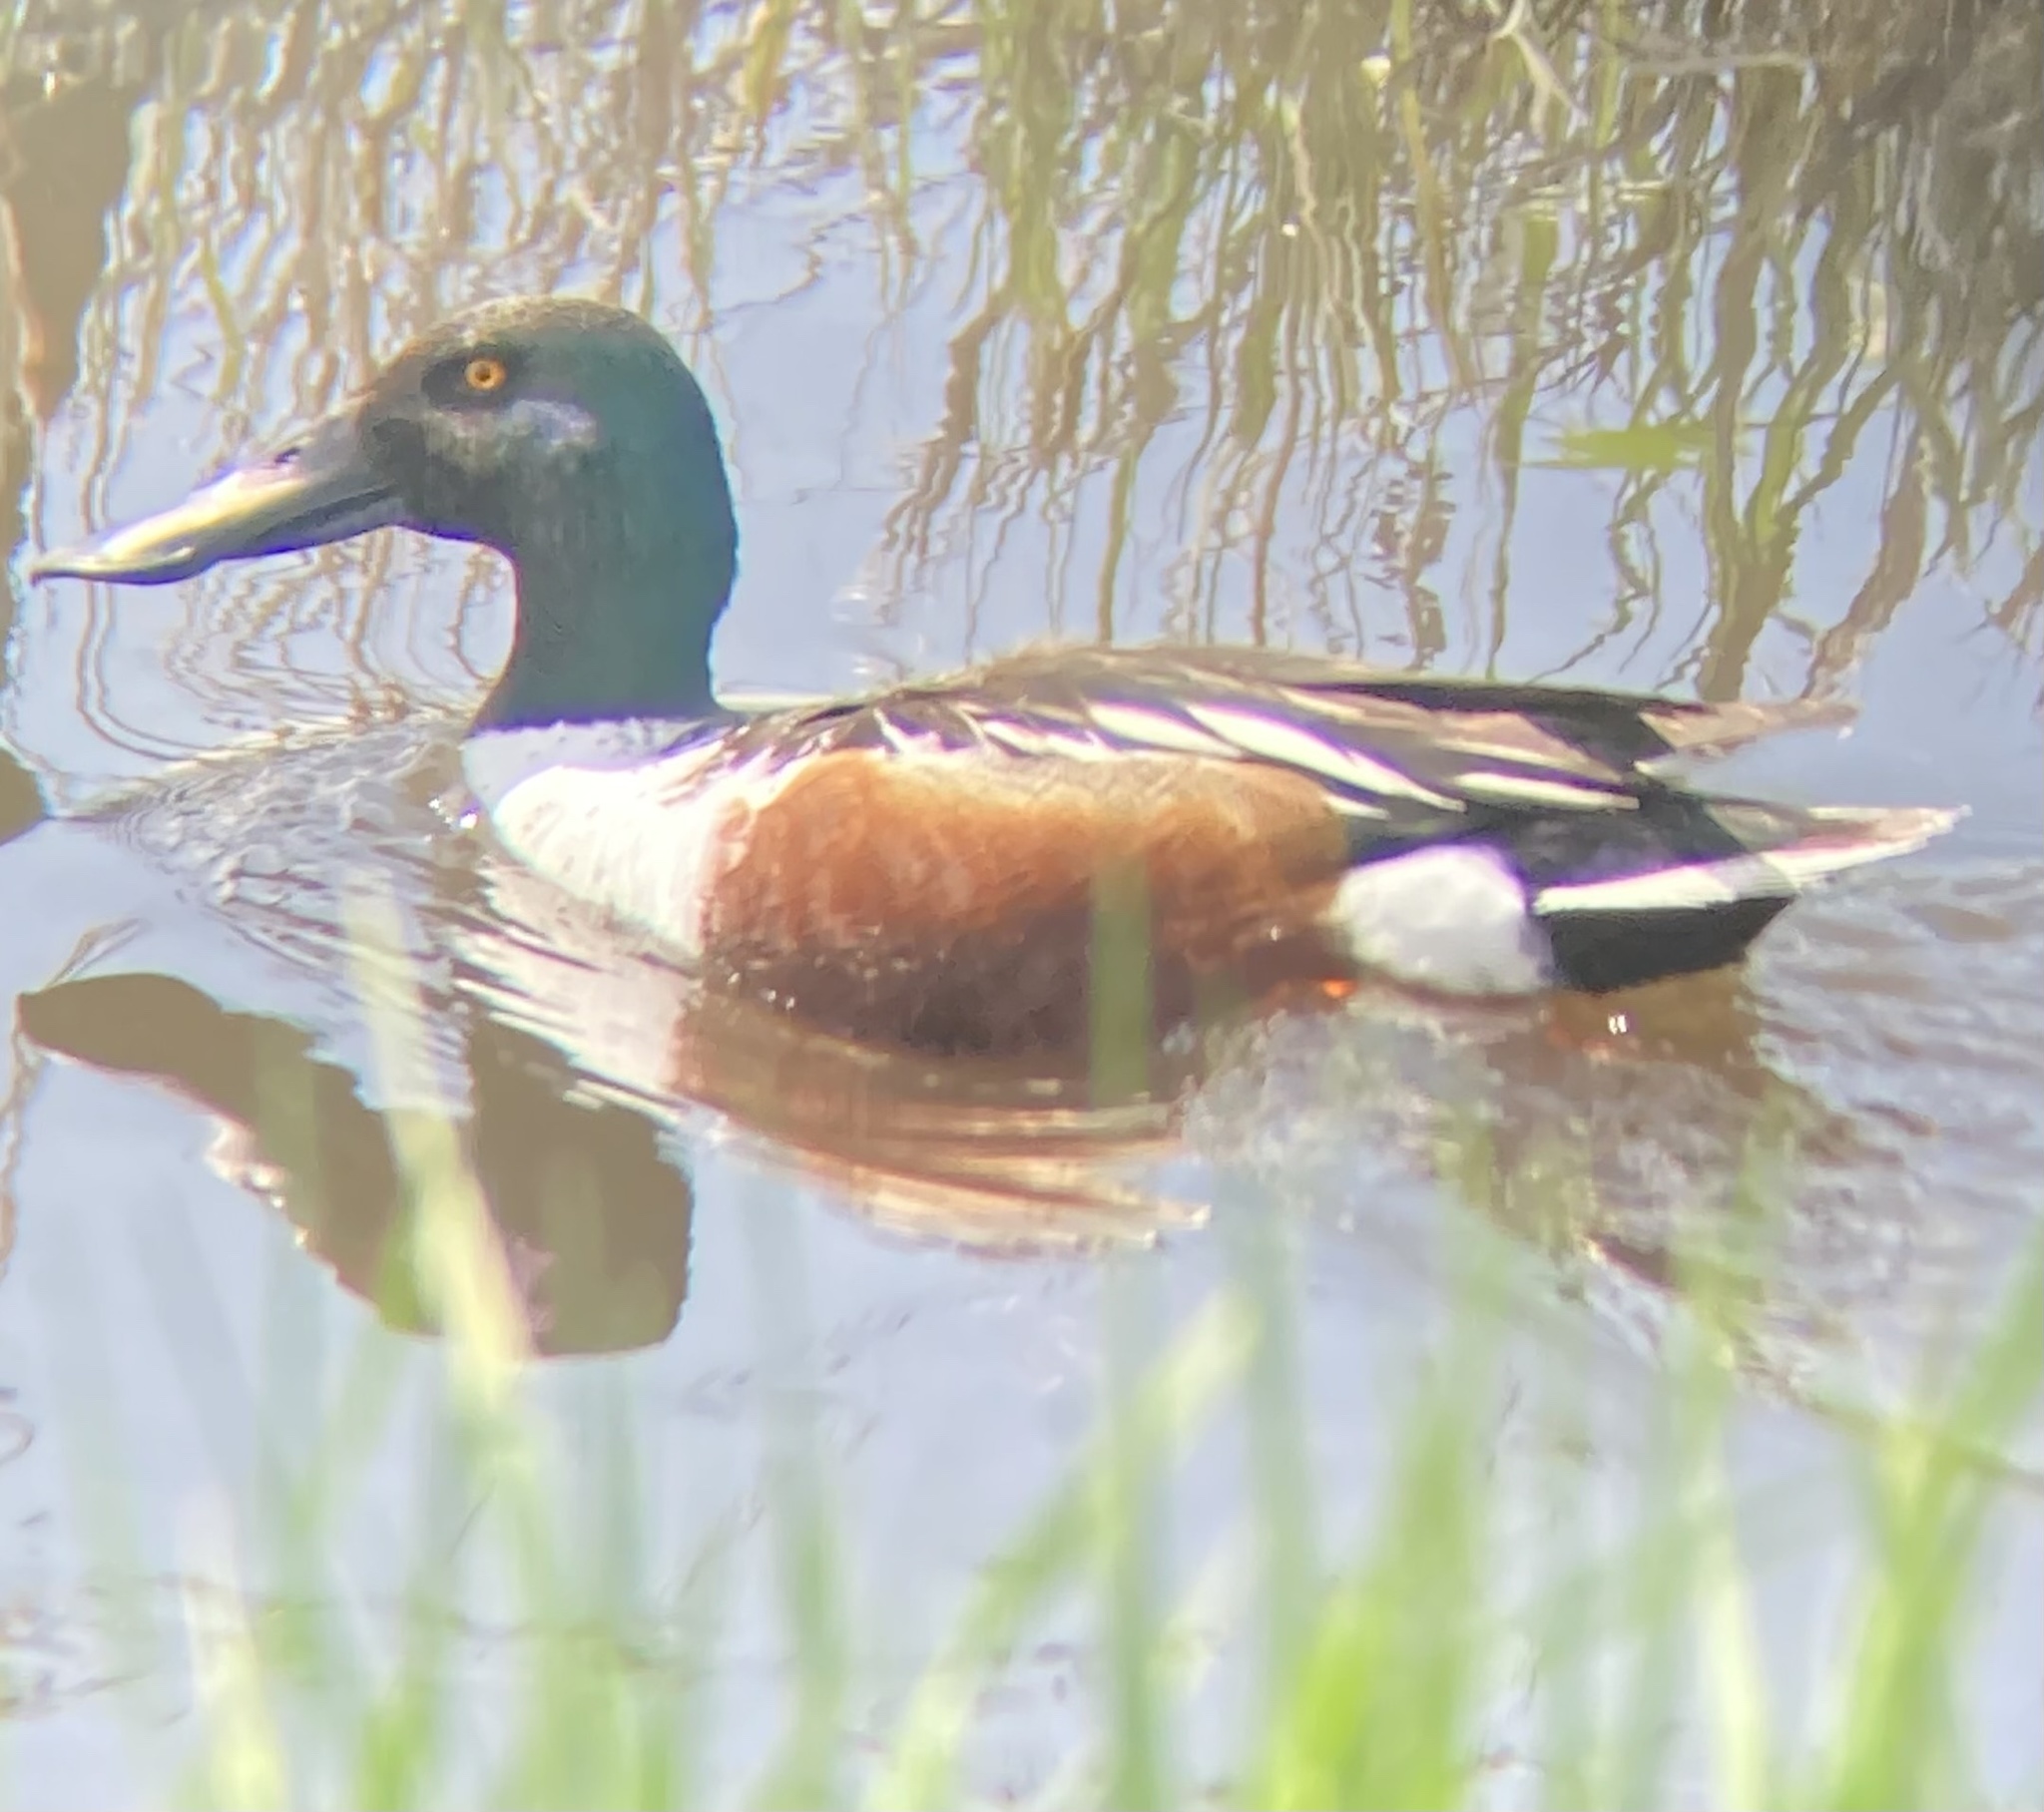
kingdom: Animalia
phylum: Chordata
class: Aves
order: Anseriformes
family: Anatidae
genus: Spatula
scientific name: Spatula clypeata
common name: Northern shoveler
